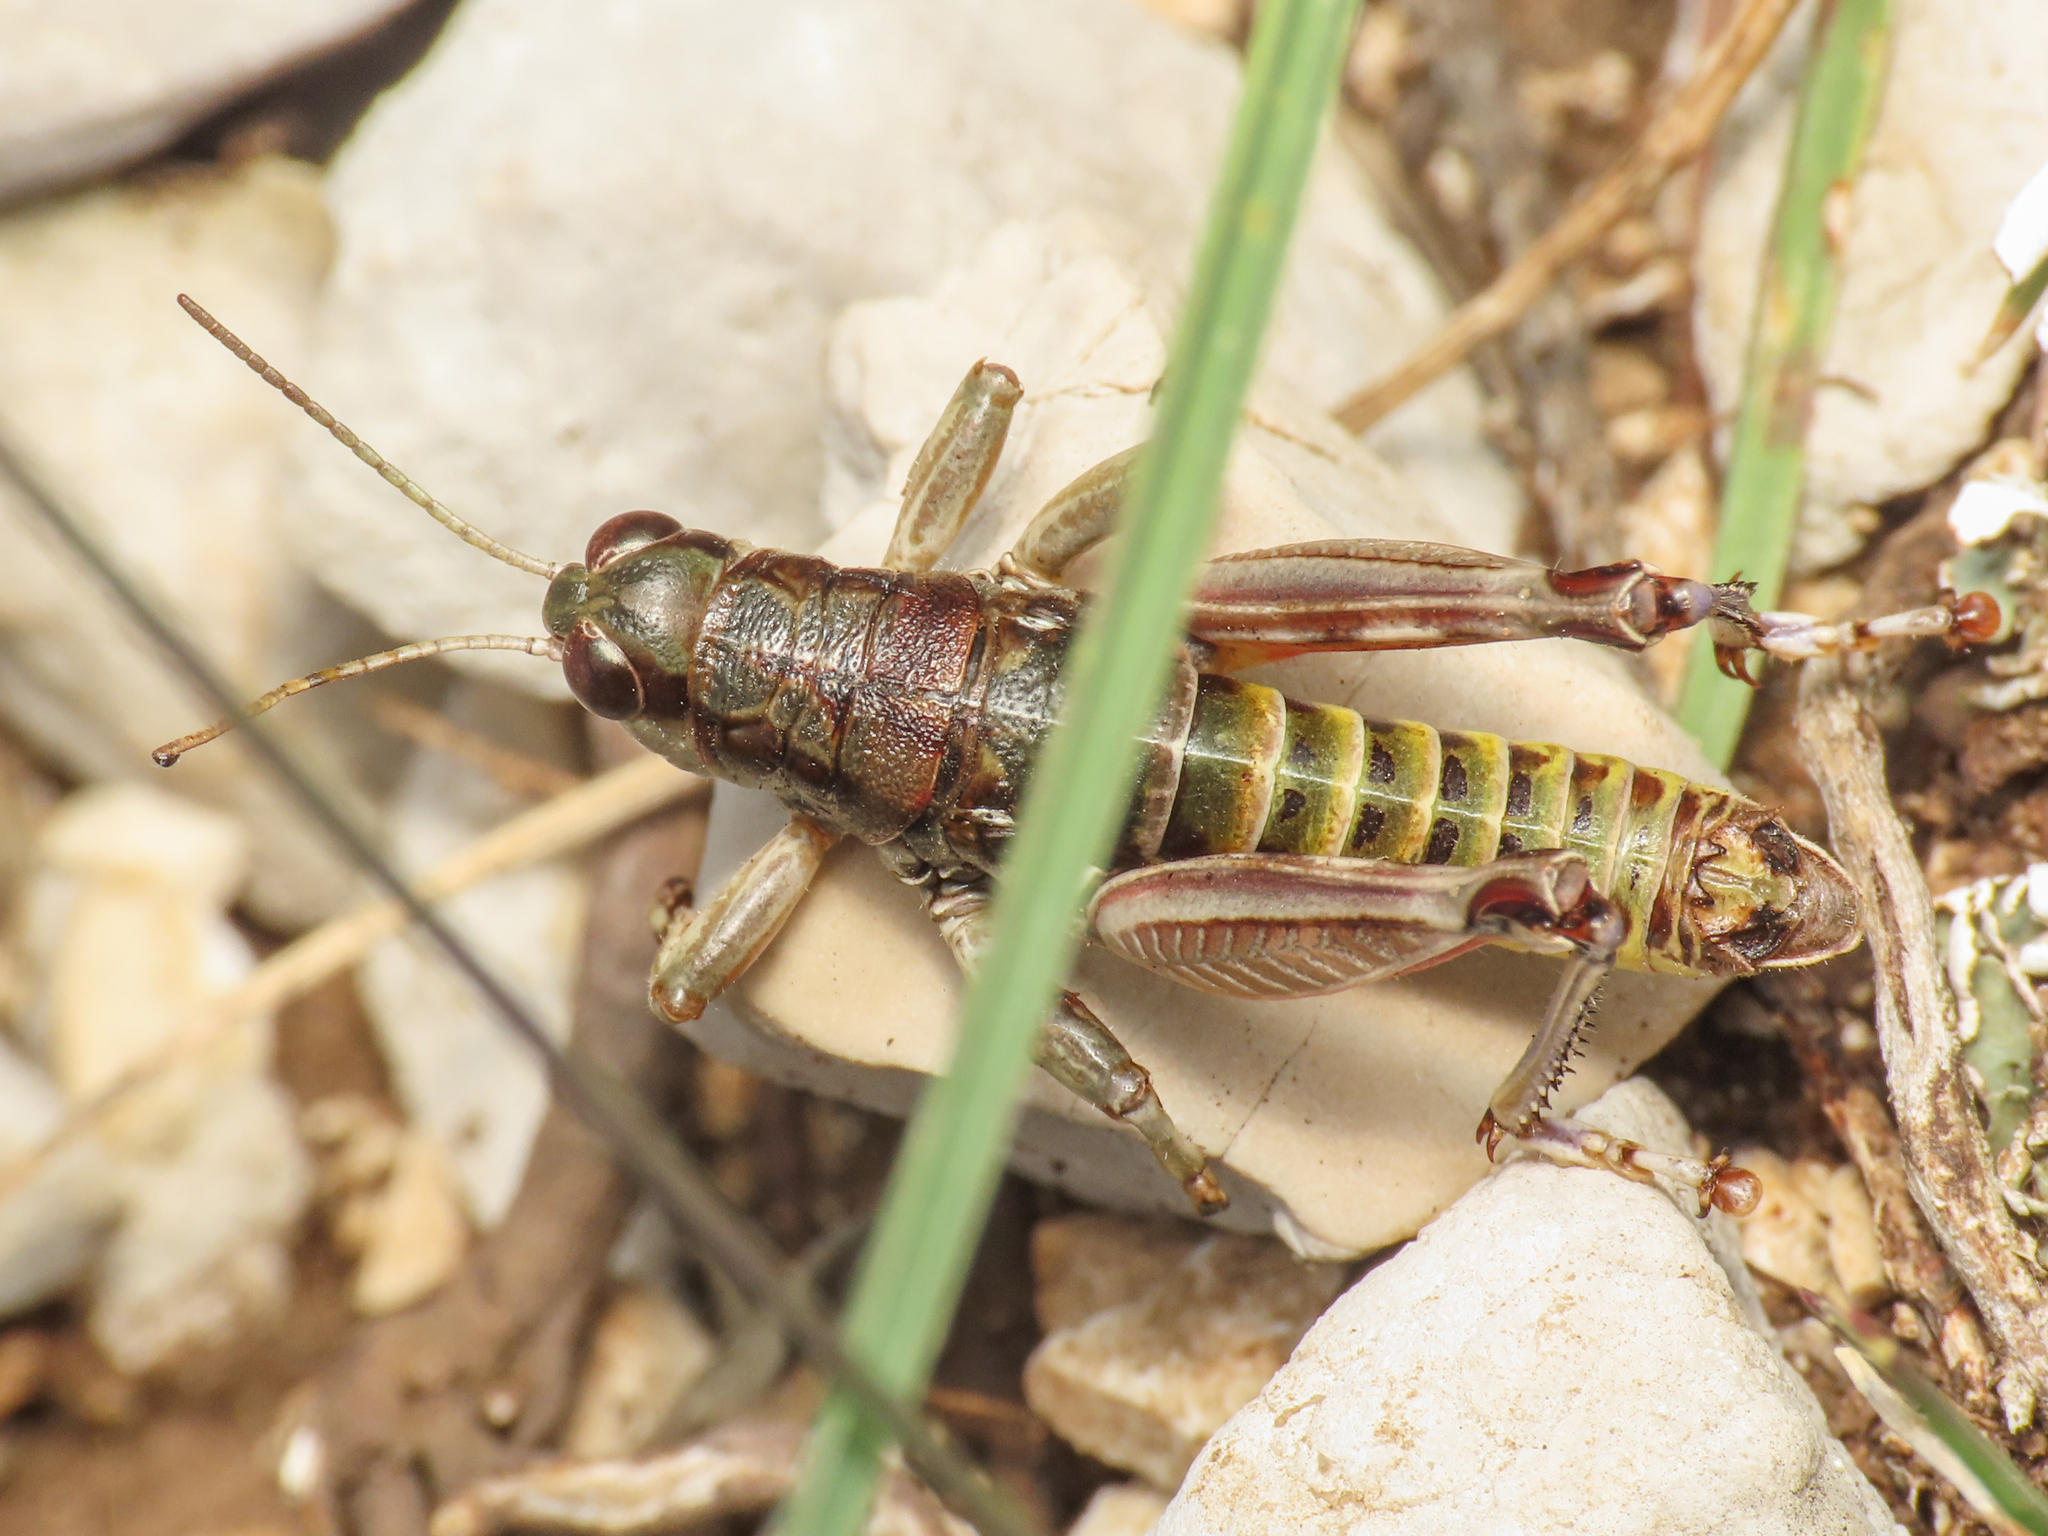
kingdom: Animalia
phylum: Arthropoda
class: Insecta
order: Orthoptera
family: Acrididae
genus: Italopodisma
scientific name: Italopodisma ebneri
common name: Reatine apennine grasshopper
